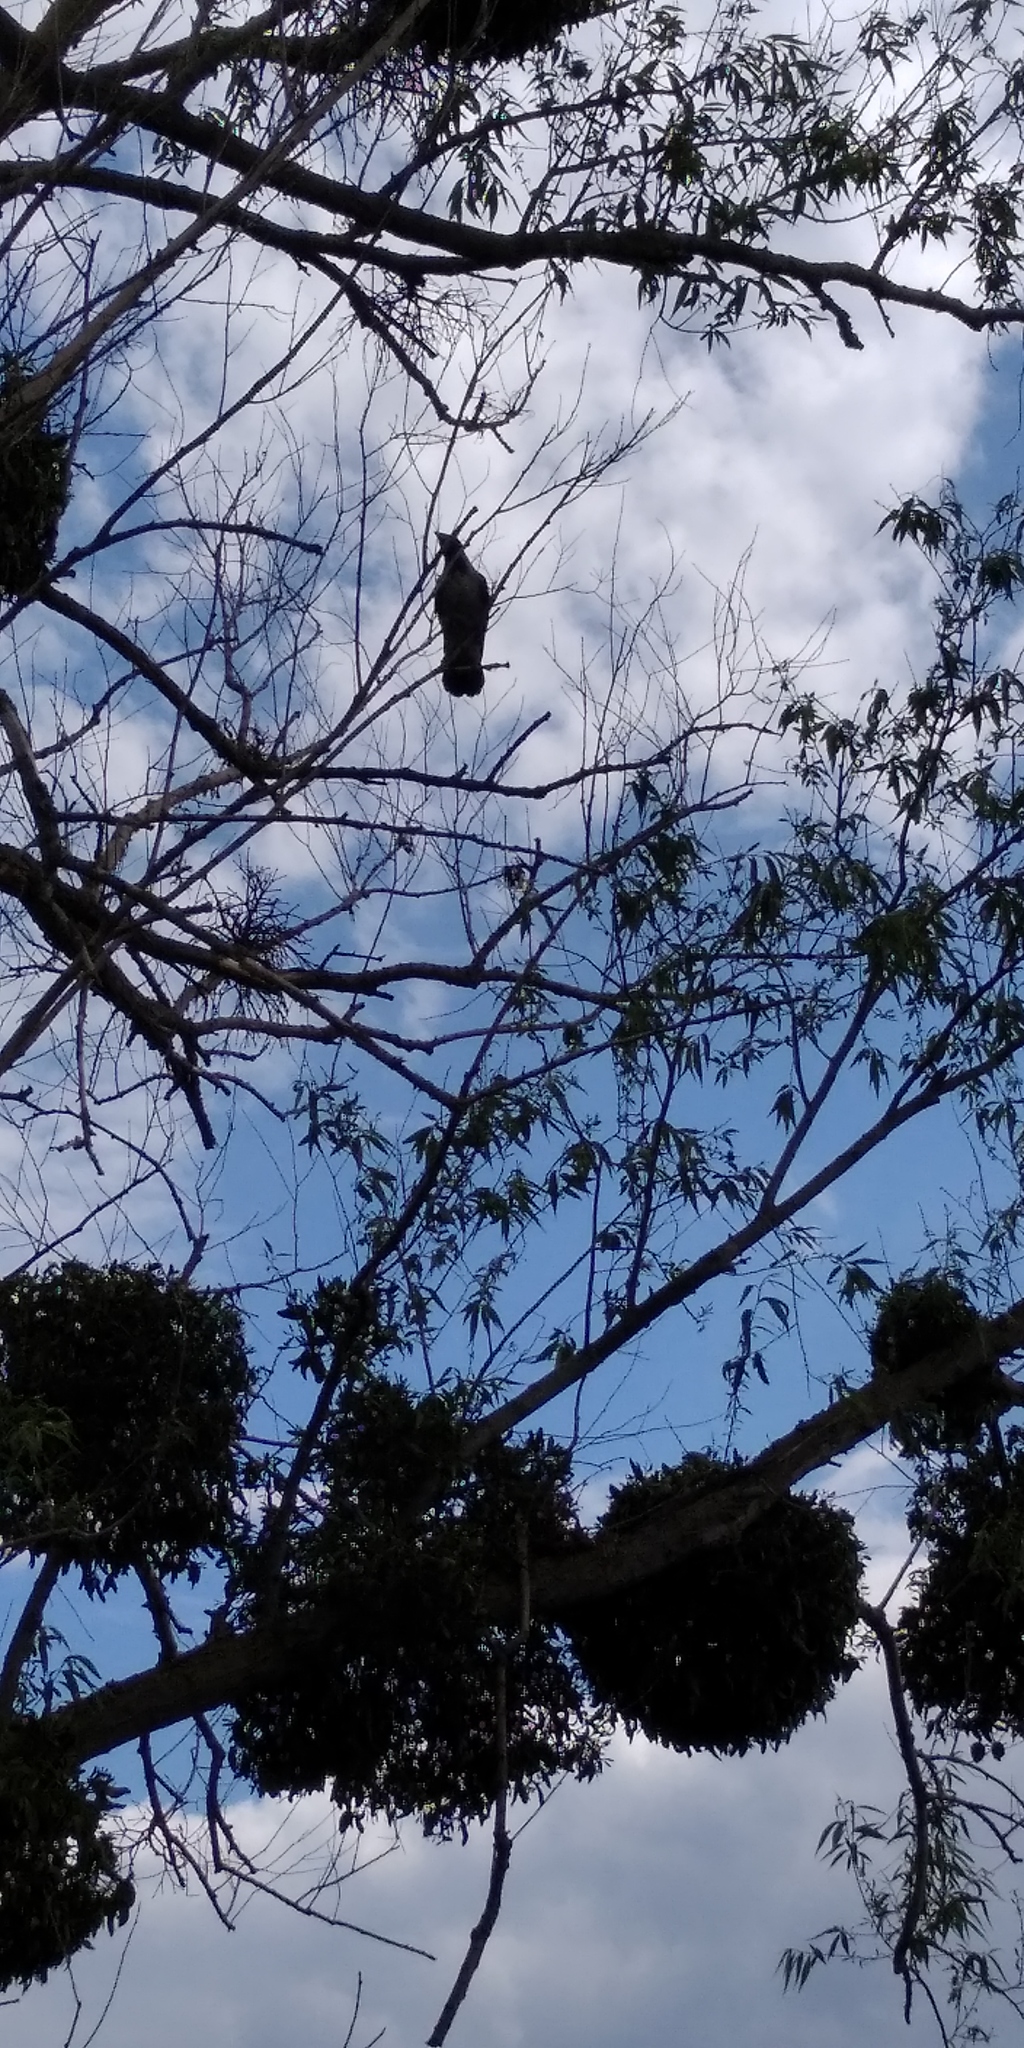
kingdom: Animalia
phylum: Chordata
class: Aves
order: Passeriformes
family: Corvidae
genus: Corvus
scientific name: Corvus cornix
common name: Hooded crow
